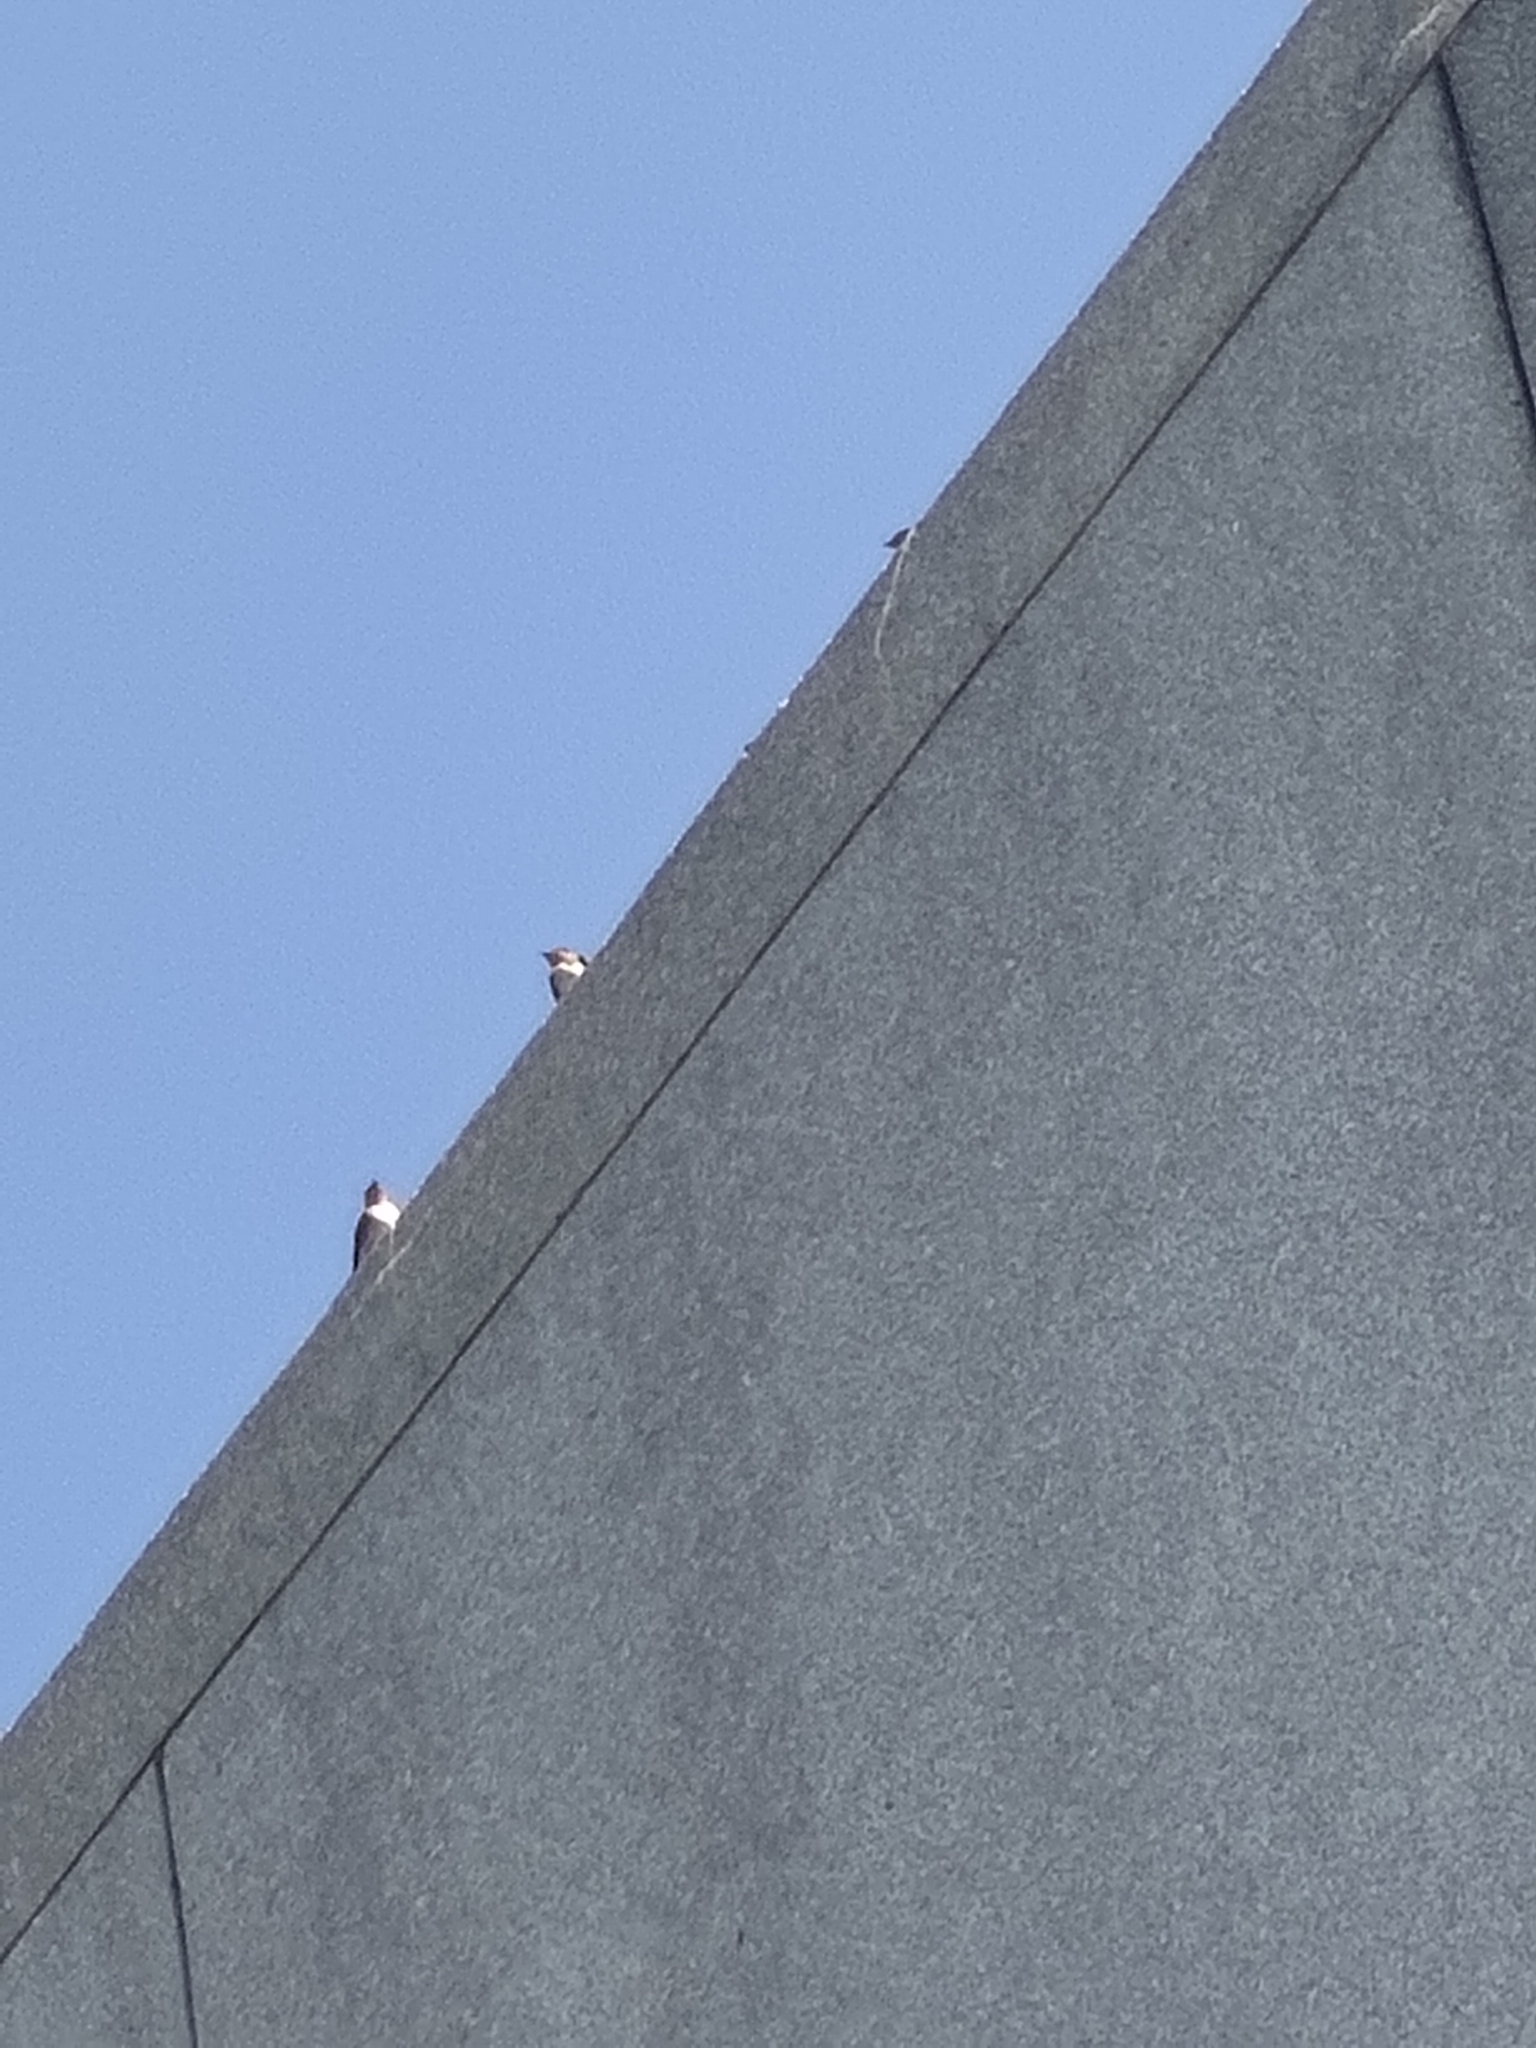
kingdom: Animalia
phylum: Chordata
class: Aves
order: Passeriformes
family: Hirundinidae
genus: Hirundo
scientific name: Hirundo tahitica
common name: Pacific swallow
